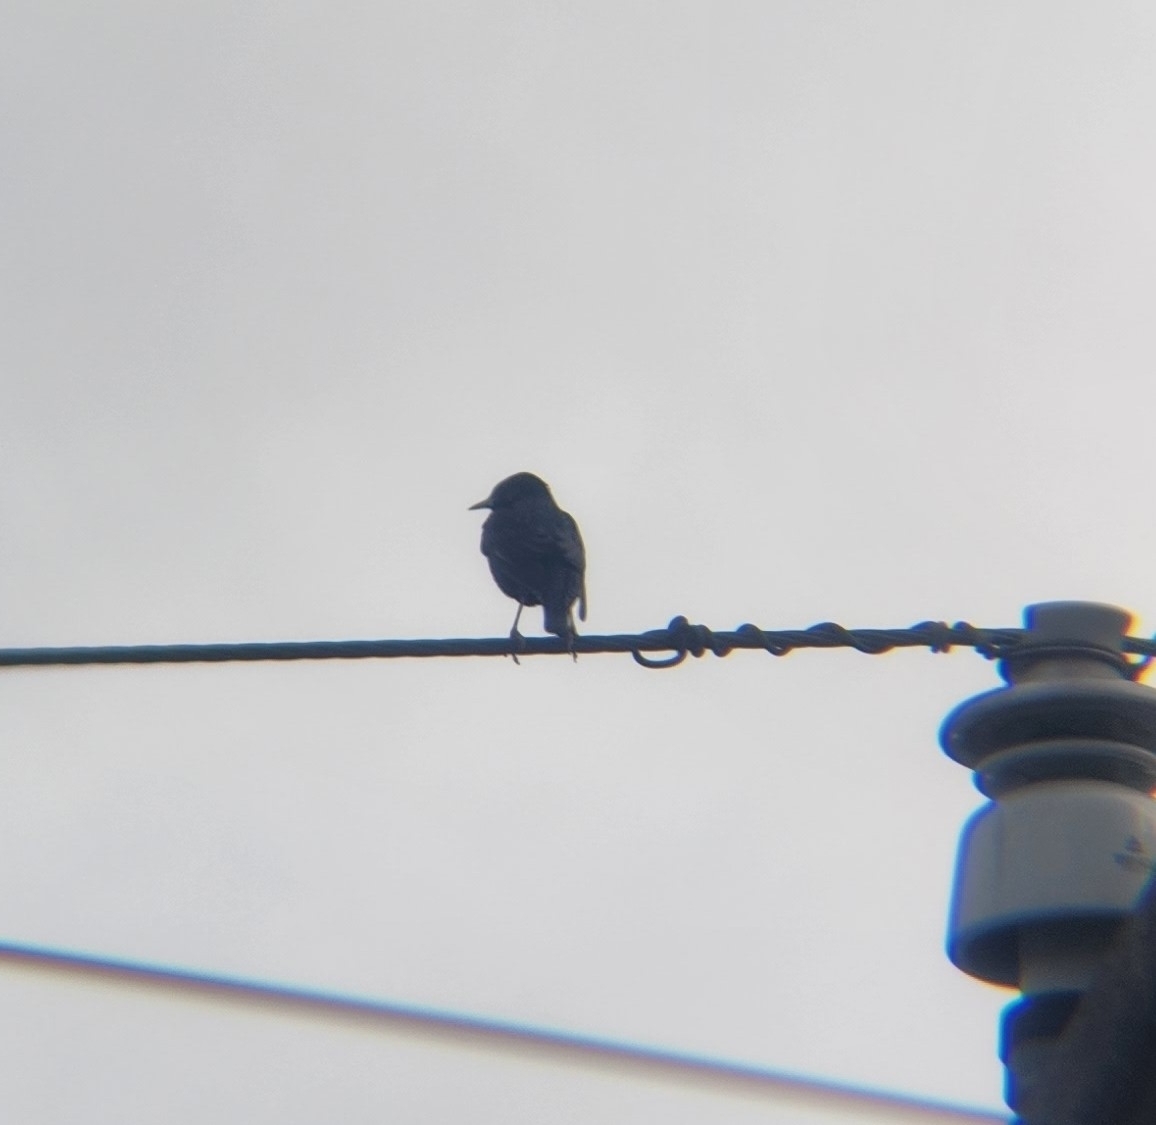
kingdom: Animalia
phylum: Chordata
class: Aves
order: Passeriformes
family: Sturnidae
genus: Sturnus
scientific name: Sturnus vulgaris
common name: Common starling
